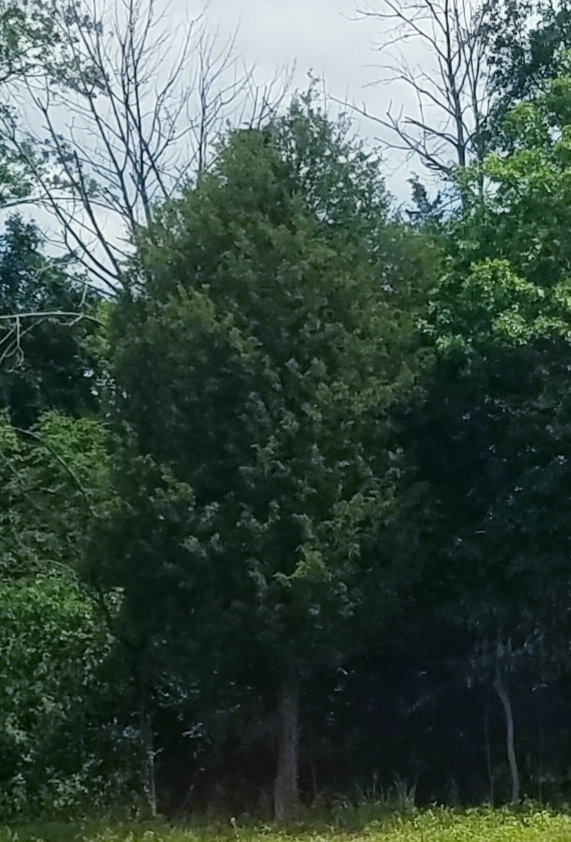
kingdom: Plantae
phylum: Tracheophyta
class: Pinopsida
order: Pinales
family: Cupressaceae
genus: Juniperus
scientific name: Juniperus virginiana
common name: Red juniper
